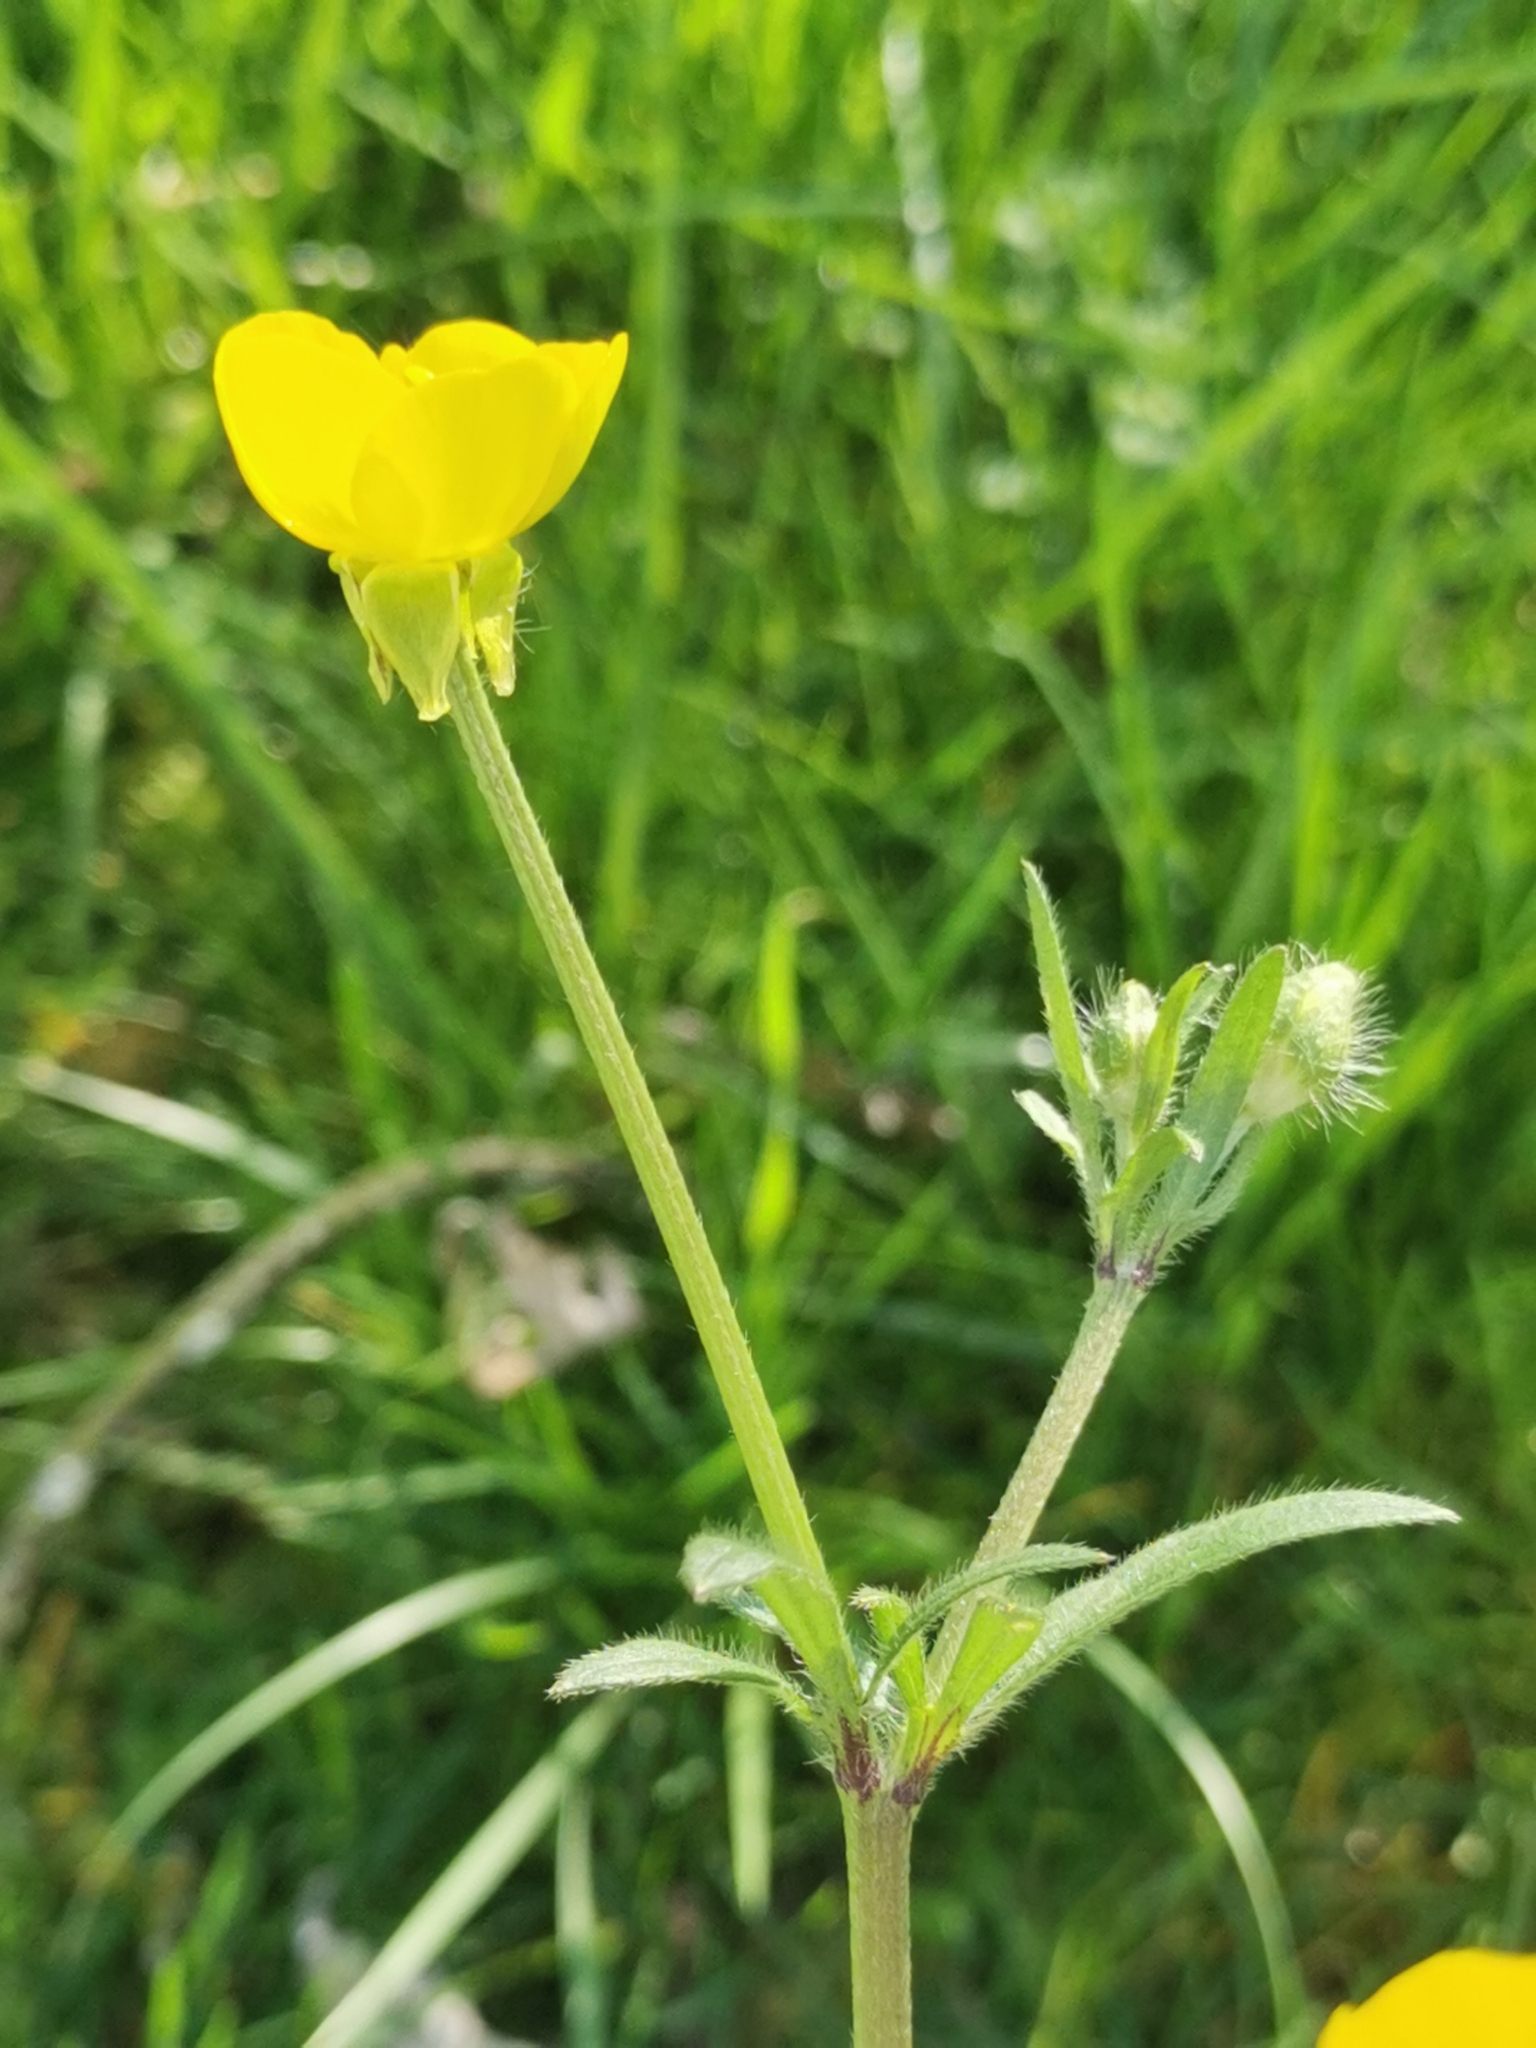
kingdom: Plantae
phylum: Tracheophyta
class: Magnoliopsida
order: Ranunculales
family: Ranunculaceae
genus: Ranunculus
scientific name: Ranunculus bulbosus
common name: Bulbous buttercup
